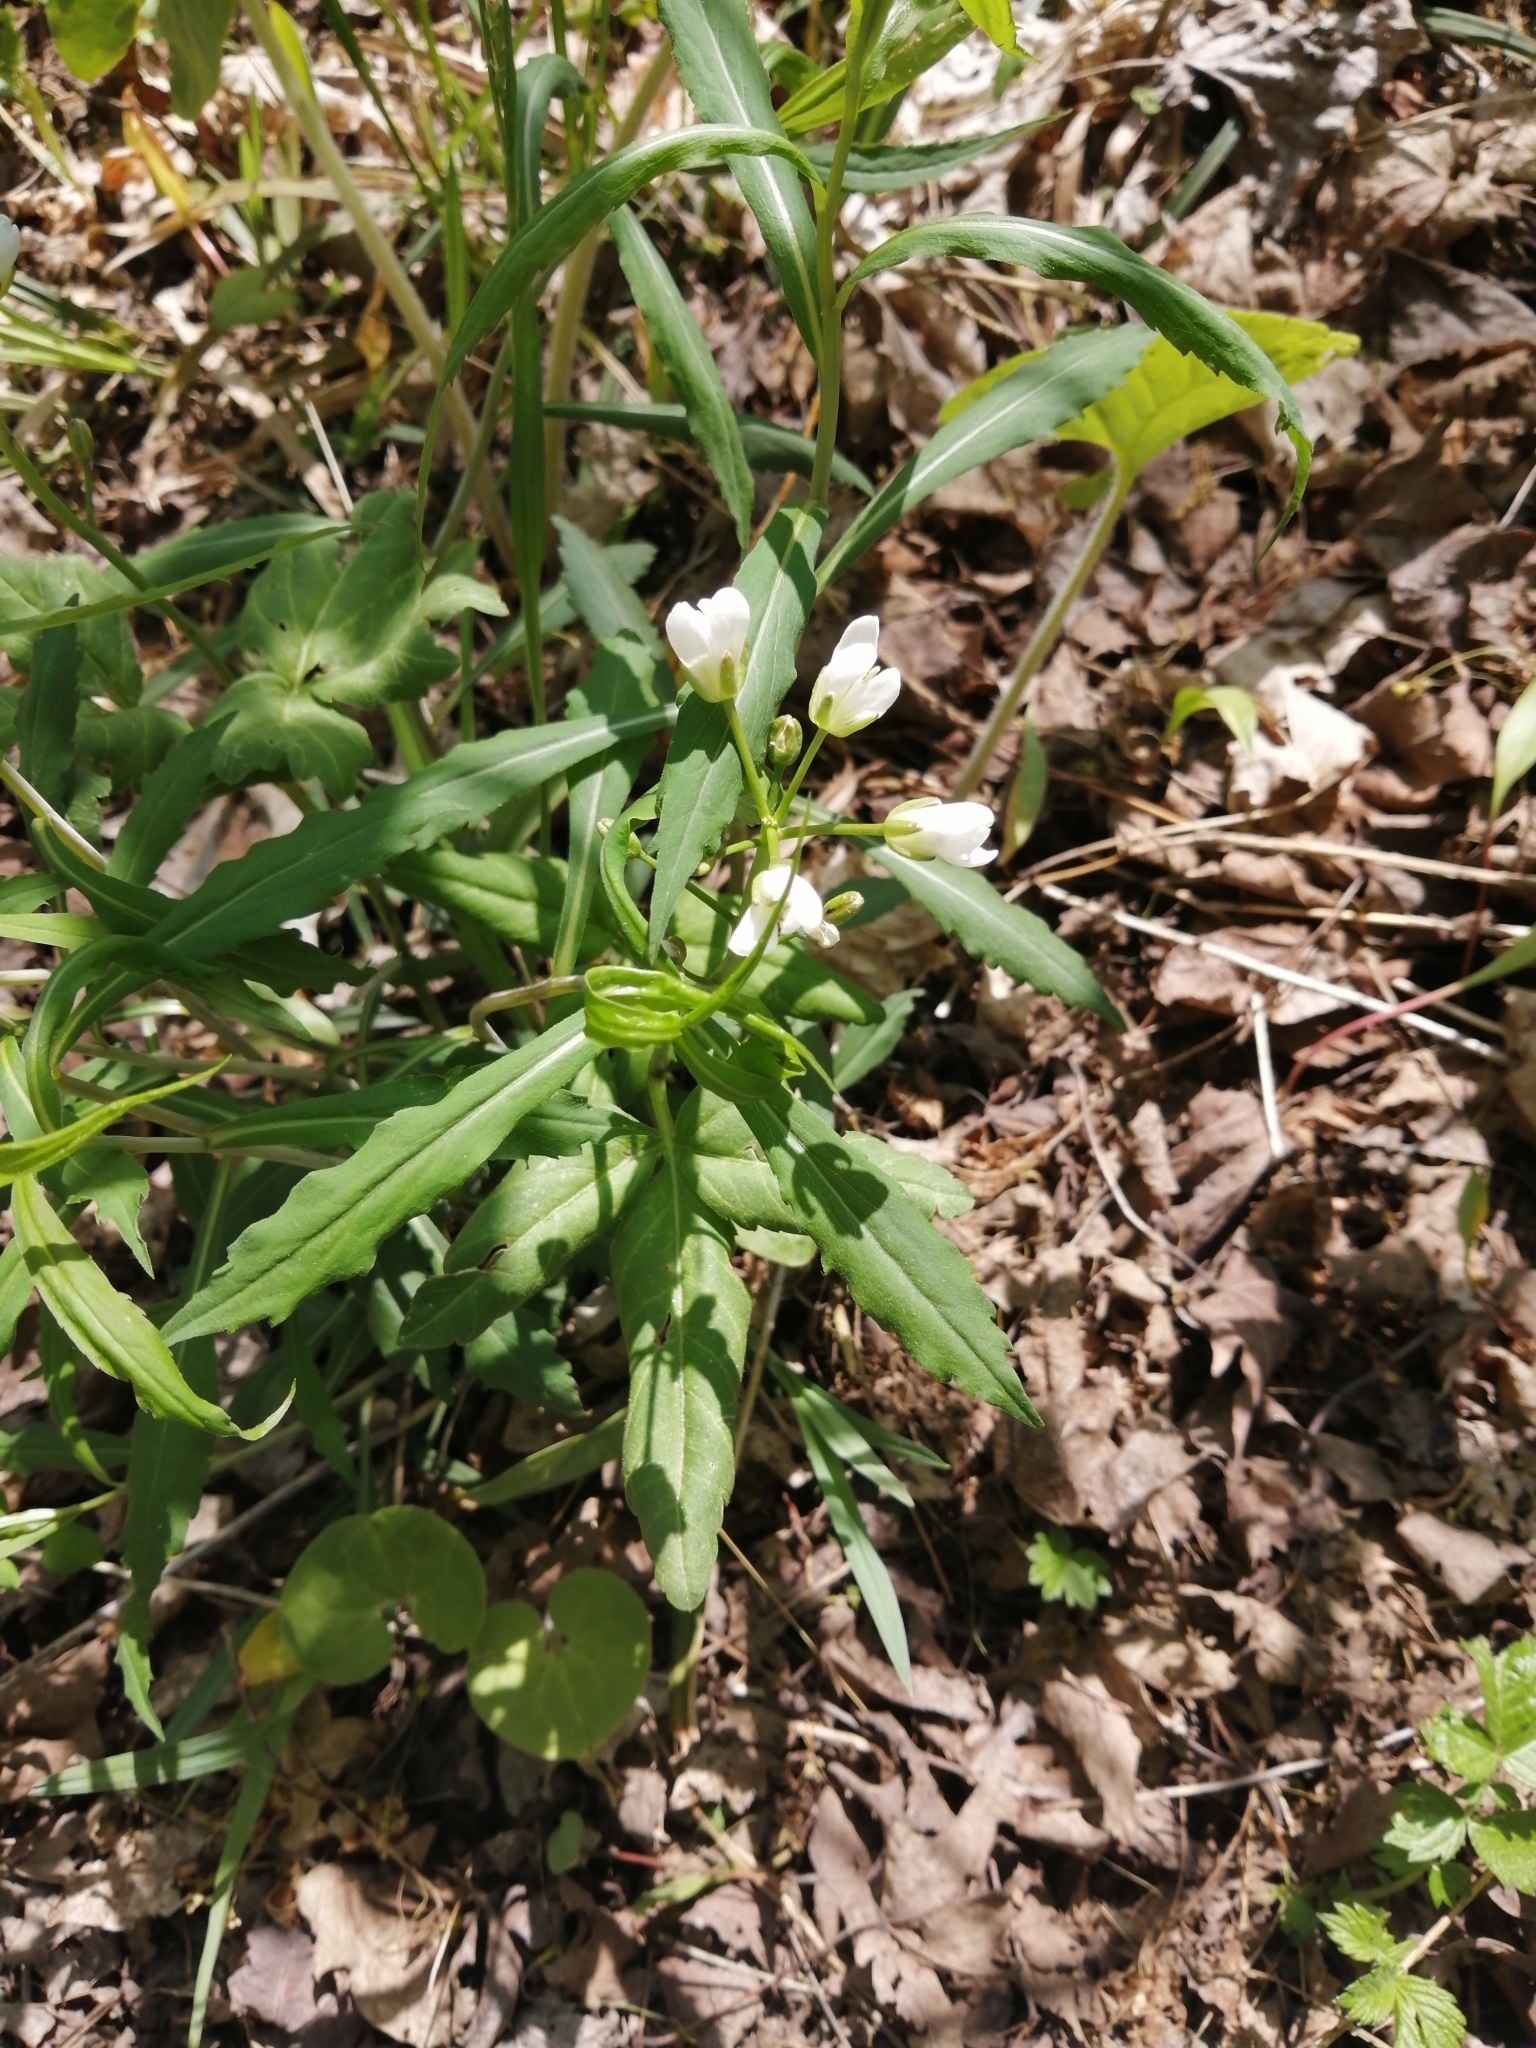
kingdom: Plantae
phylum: Tracheophyta
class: Magnoliopsida
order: Brassicales
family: Brassicaceae
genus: Cardamine
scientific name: Cardamine concatenata
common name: Cut-leaf toothcup
